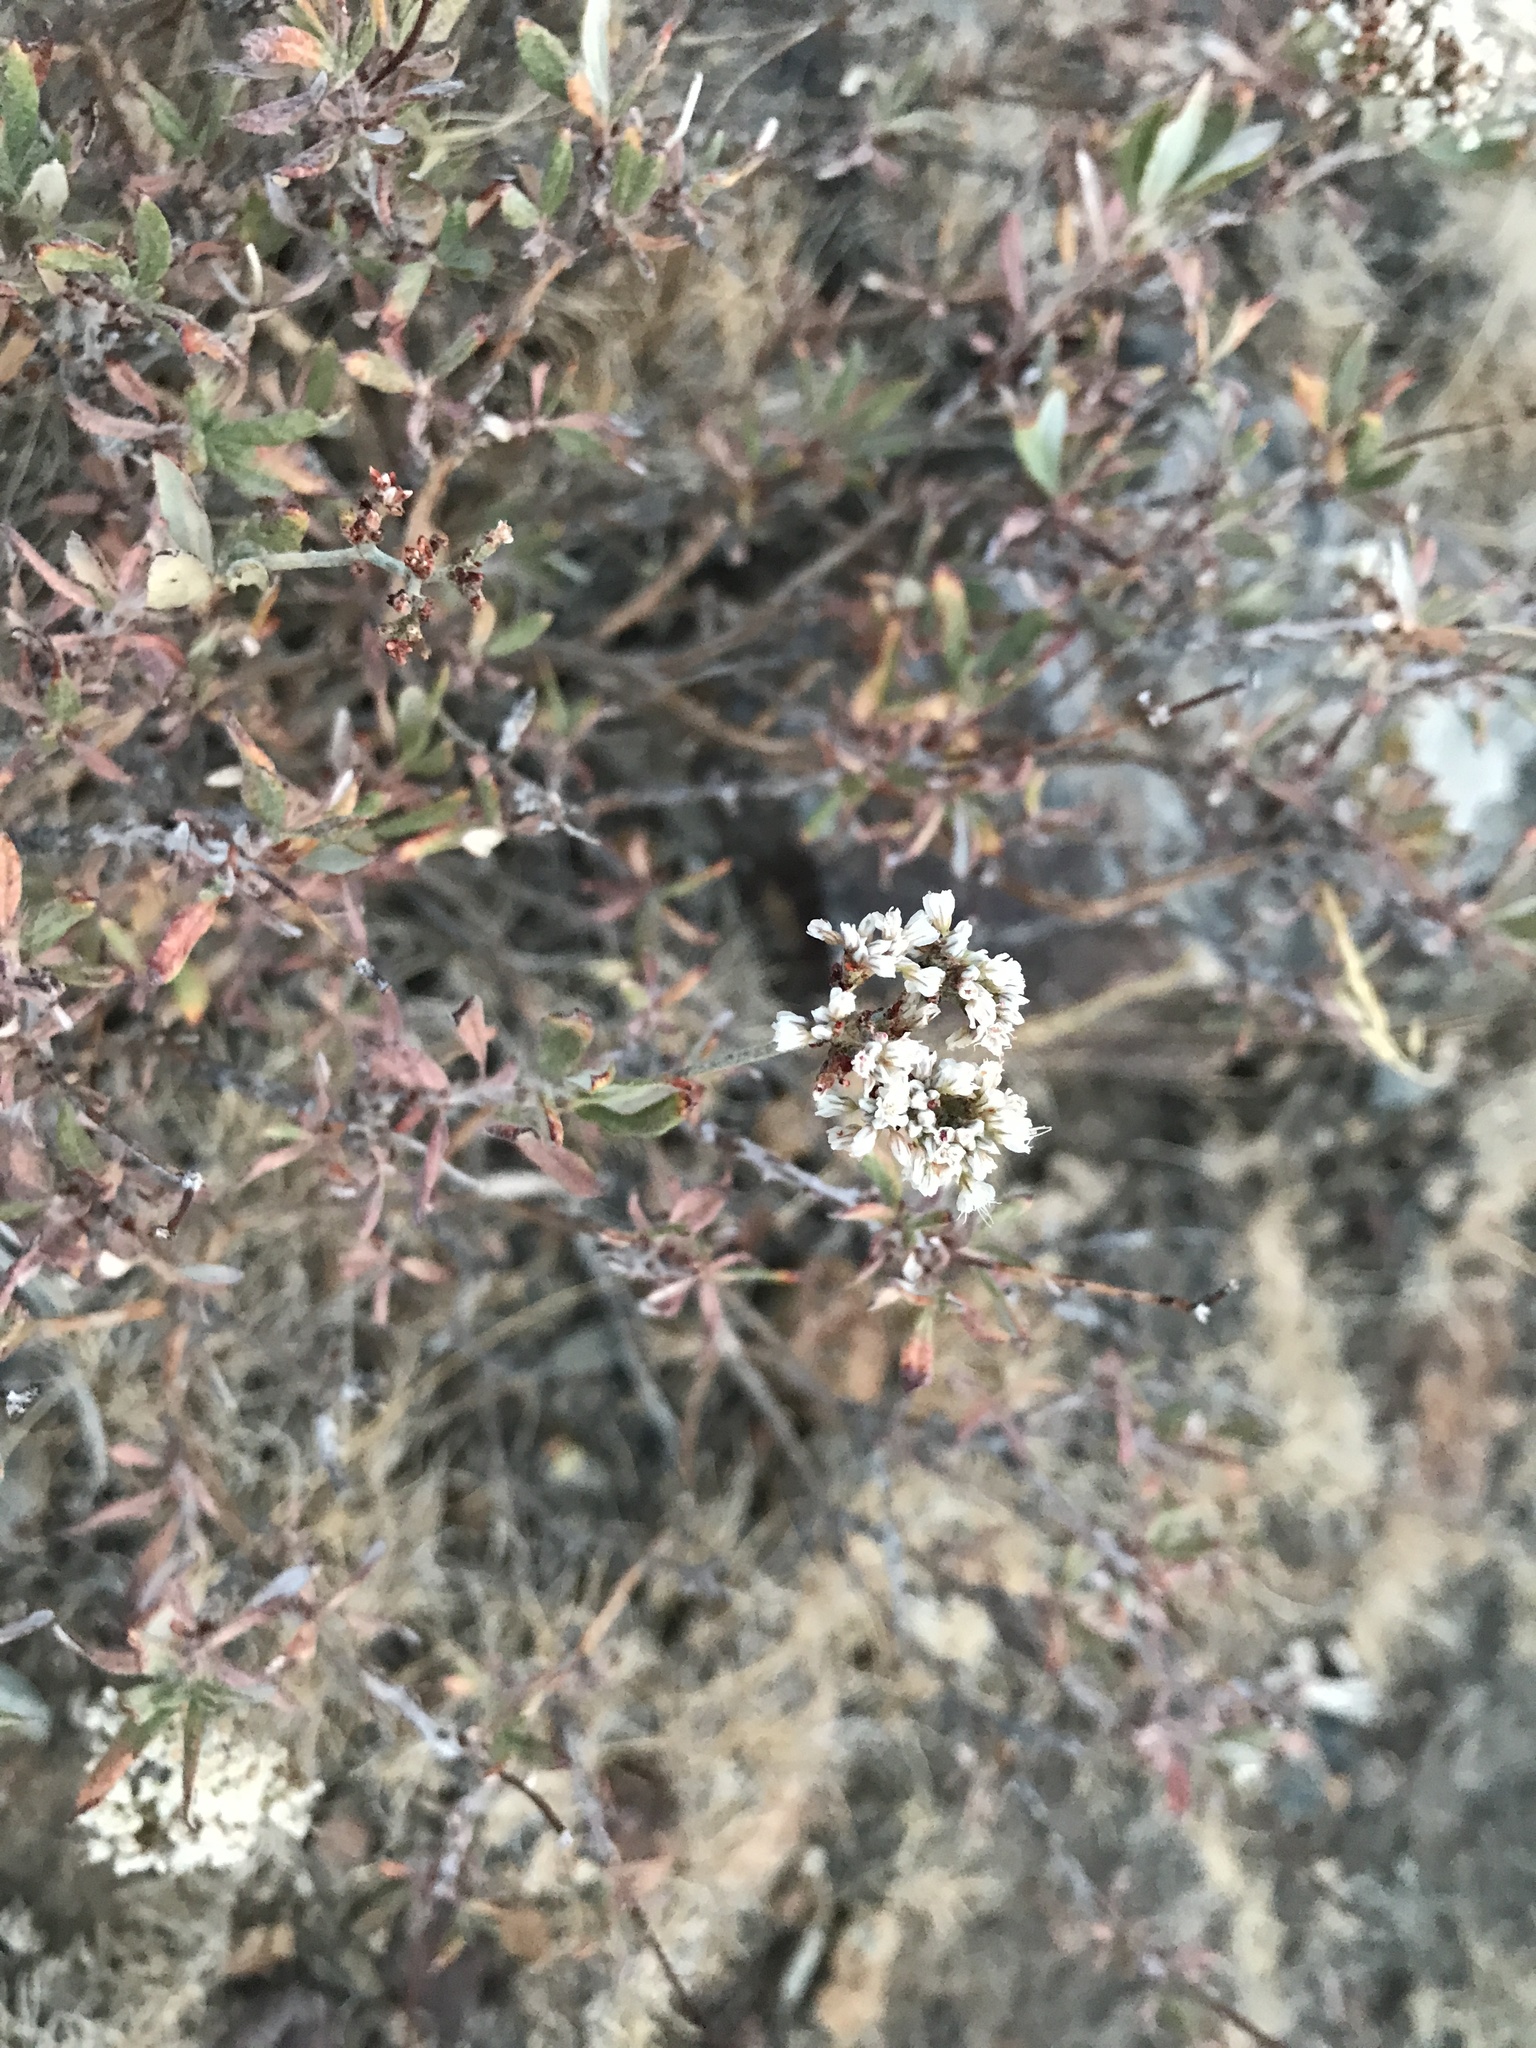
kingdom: Plantae
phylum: Tracheophyta
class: Magnoliopsida
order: Caryophyllales
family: Polygonaceae
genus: Eriogonum
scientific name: Eriogonum microtheca
